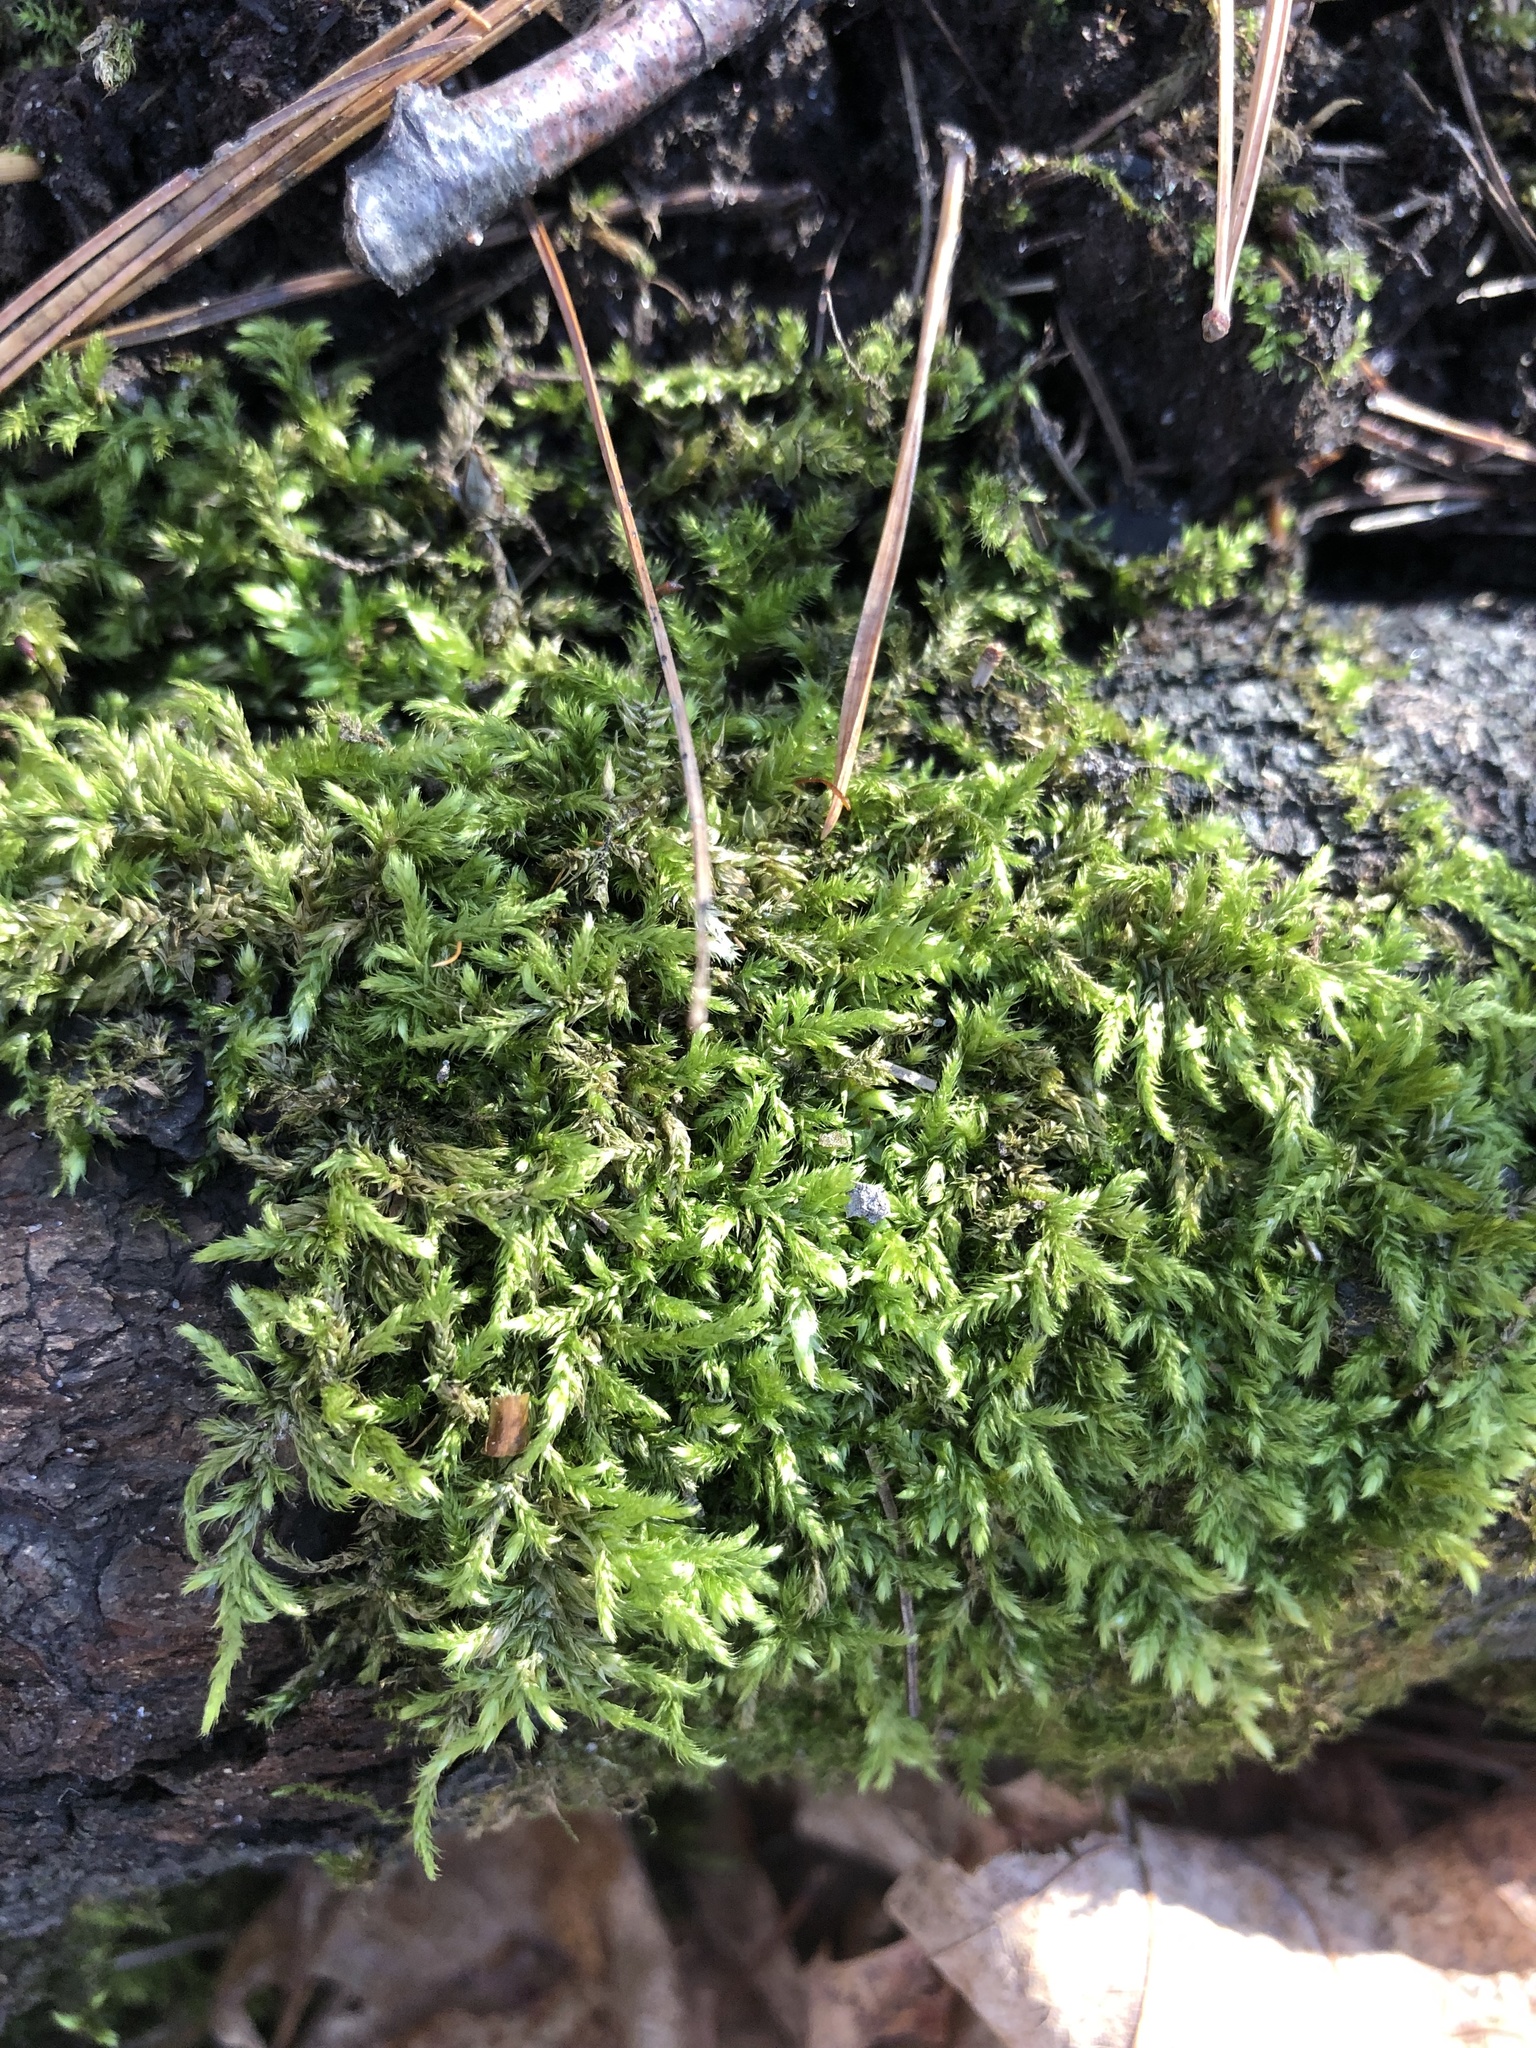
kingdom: Plantae
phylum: Bryophyta
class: Bryopsida
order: Hypnales
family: Callicladiaceae
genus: Callicladium
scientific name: Callicladium imponens
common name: Brocade moss
